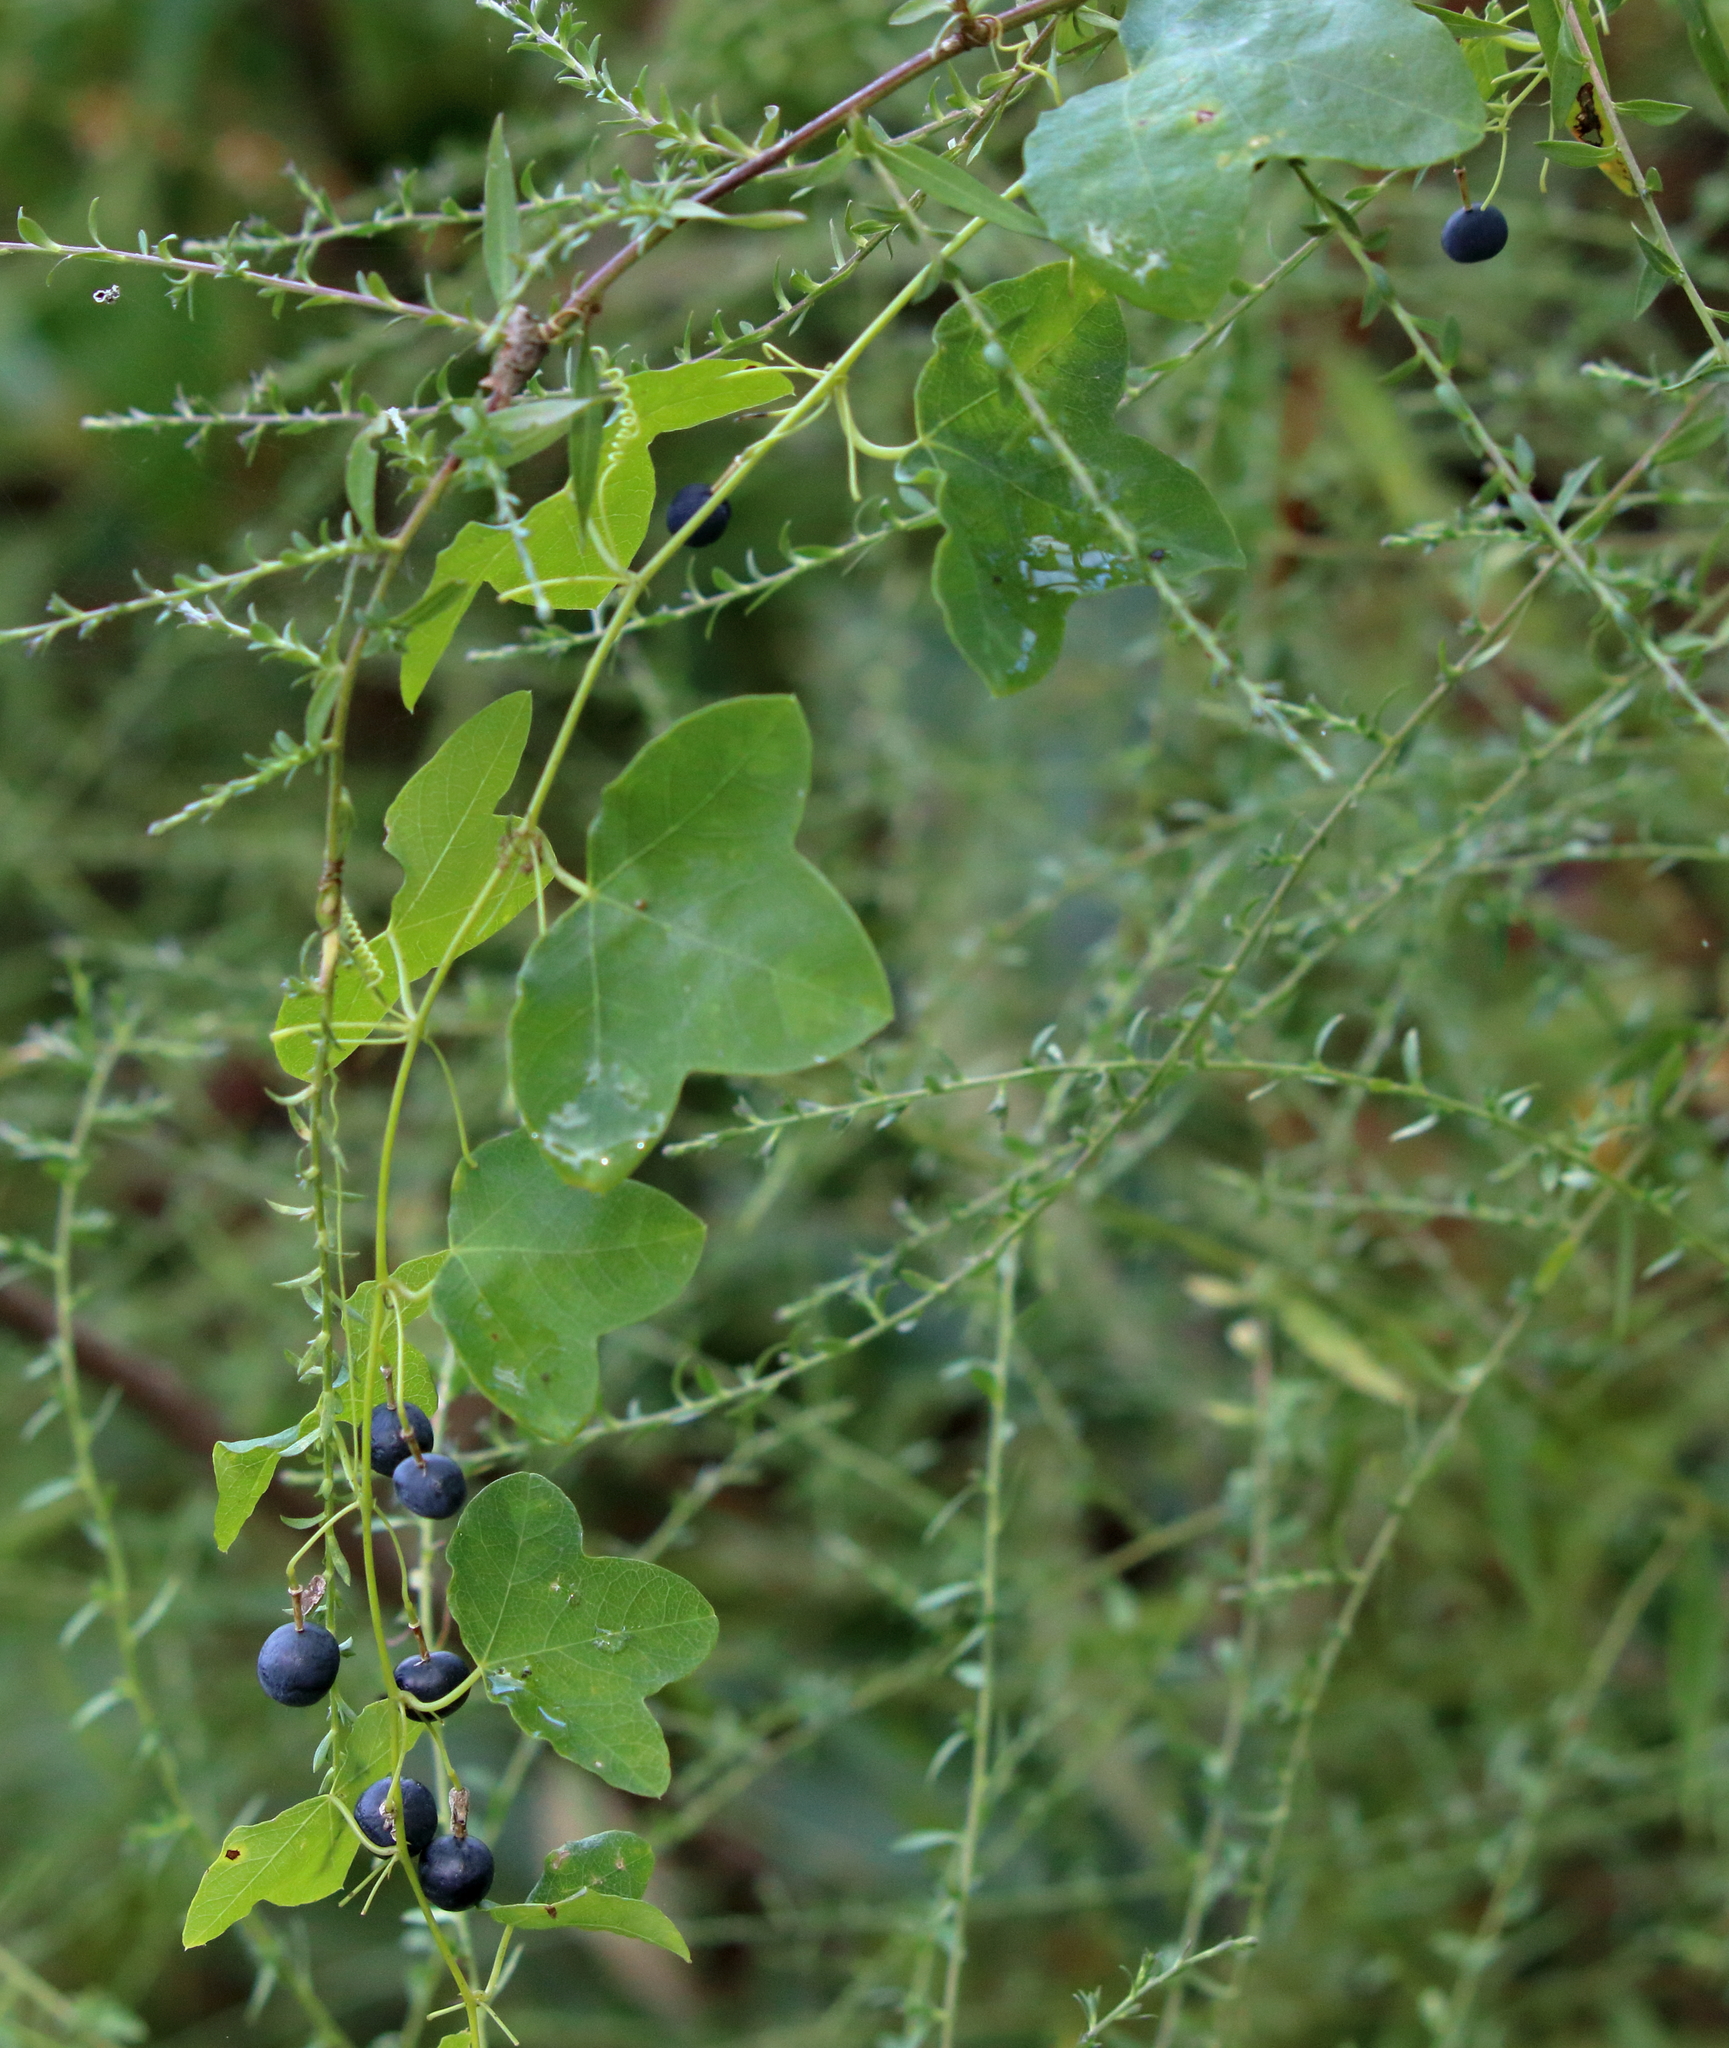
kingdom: Plantae
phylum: Tracheophyta
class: Magnoliopsida
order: Malpighiales
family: Passifloraceae
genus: Passiflora
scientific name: Passiflora lutea
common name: Yellow passionflower
